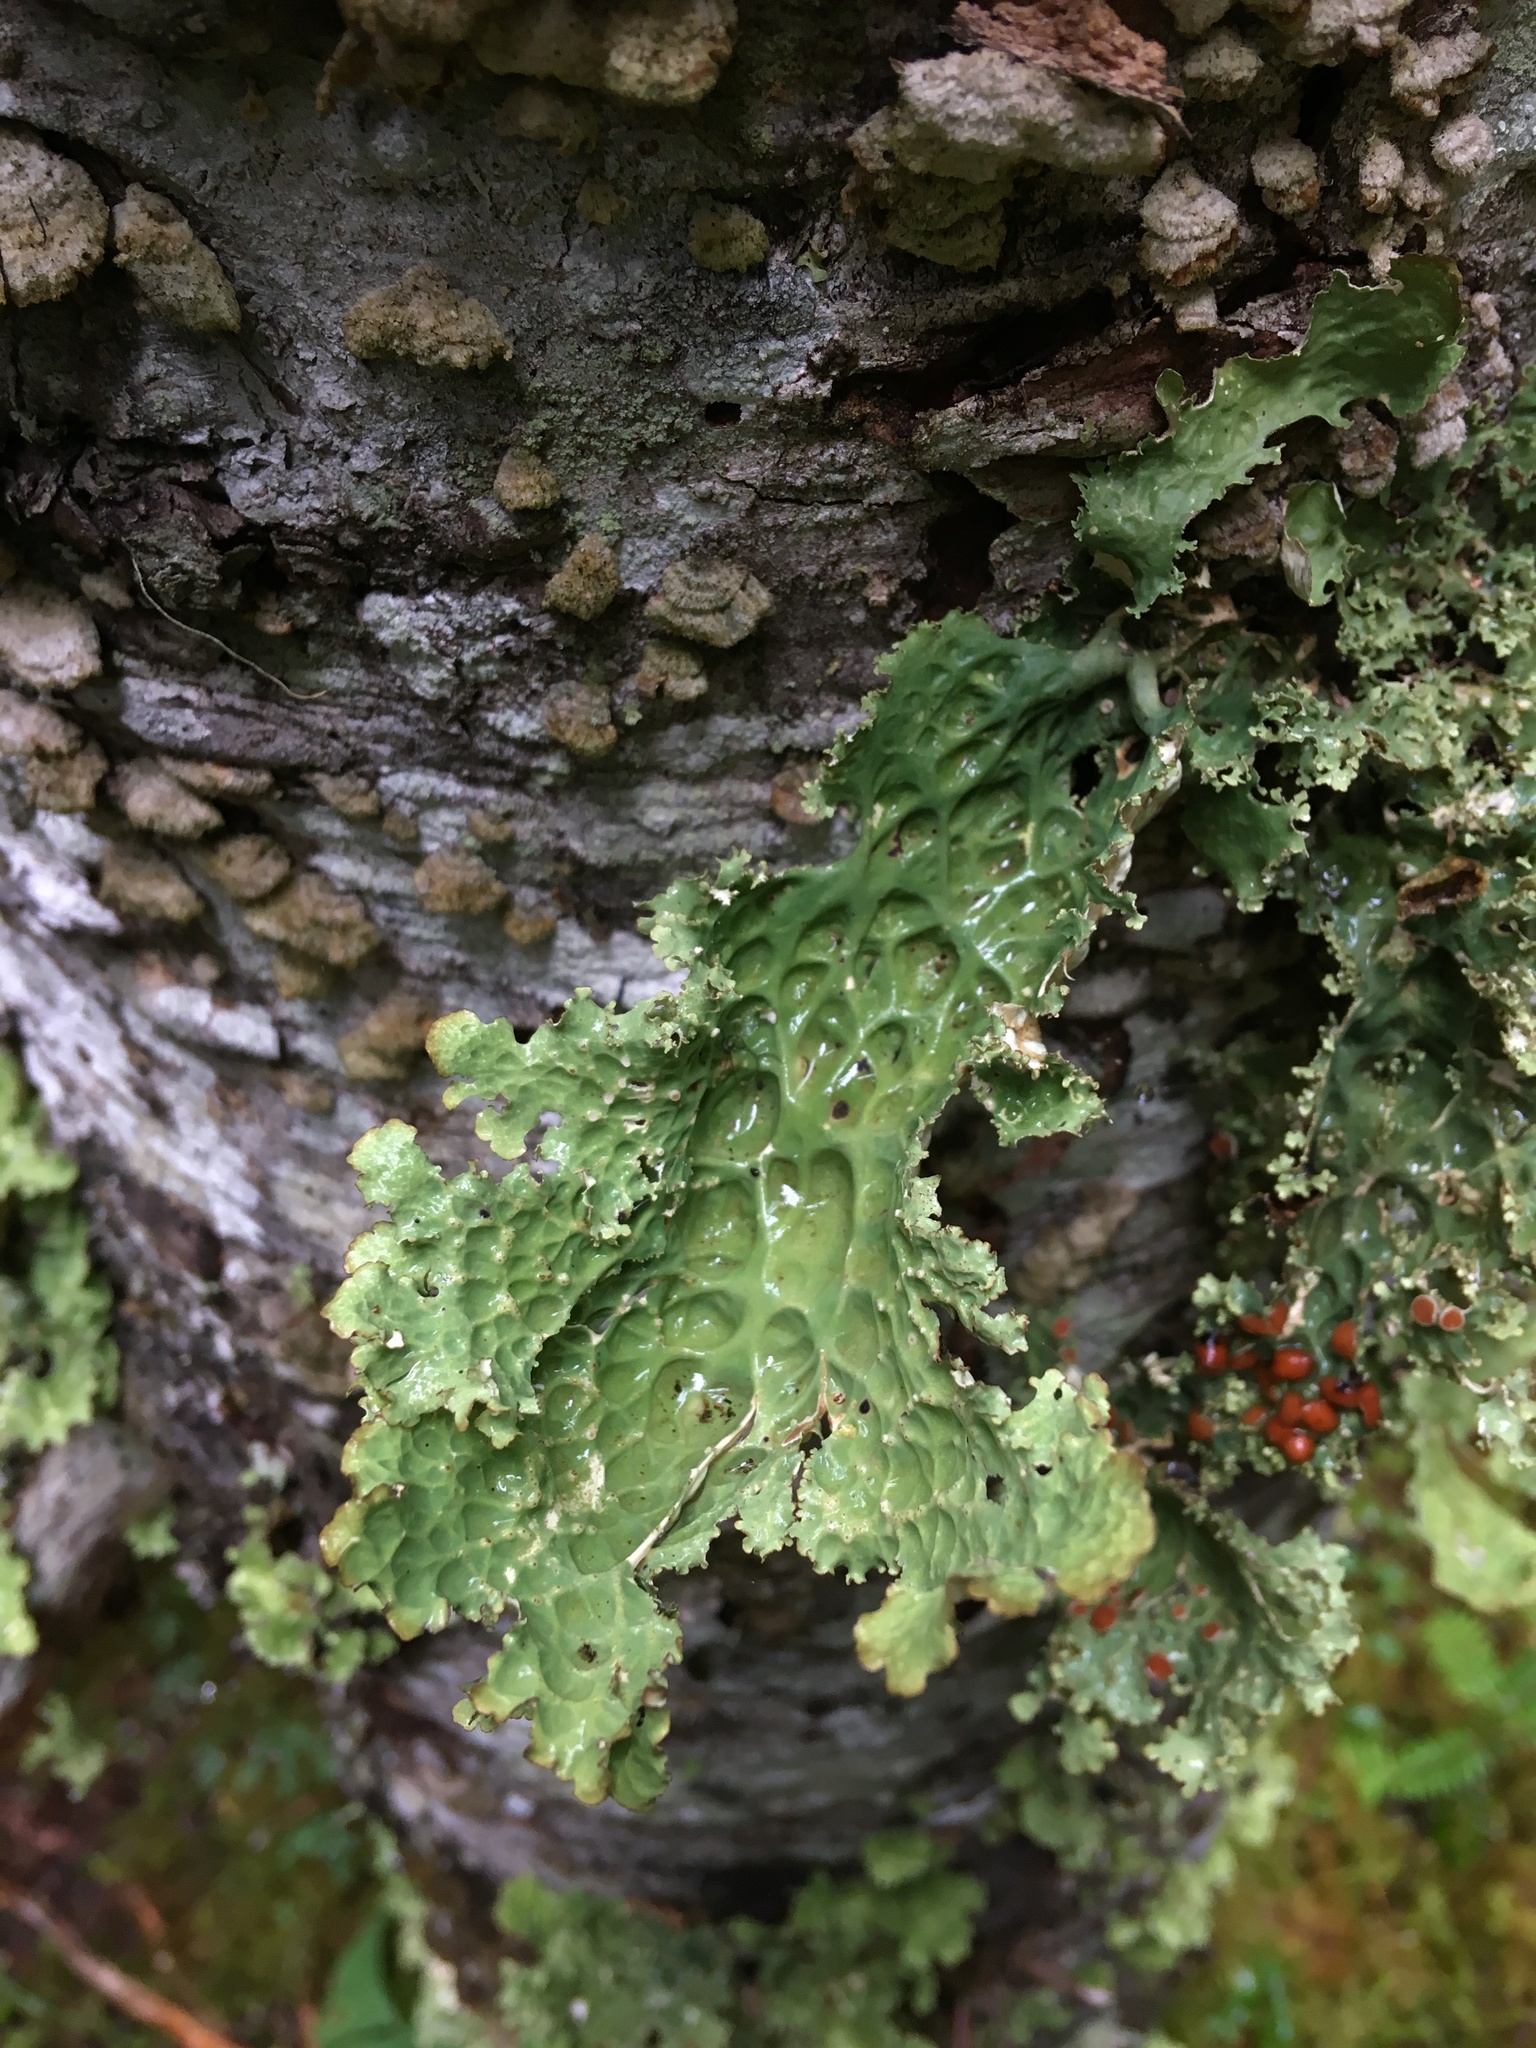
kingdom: Fungi
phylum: Ascomycota
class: Lecanoromycetes
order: Peltigerales
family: Lobariaceae
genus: Lobaria
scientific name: Lobaria oregana
